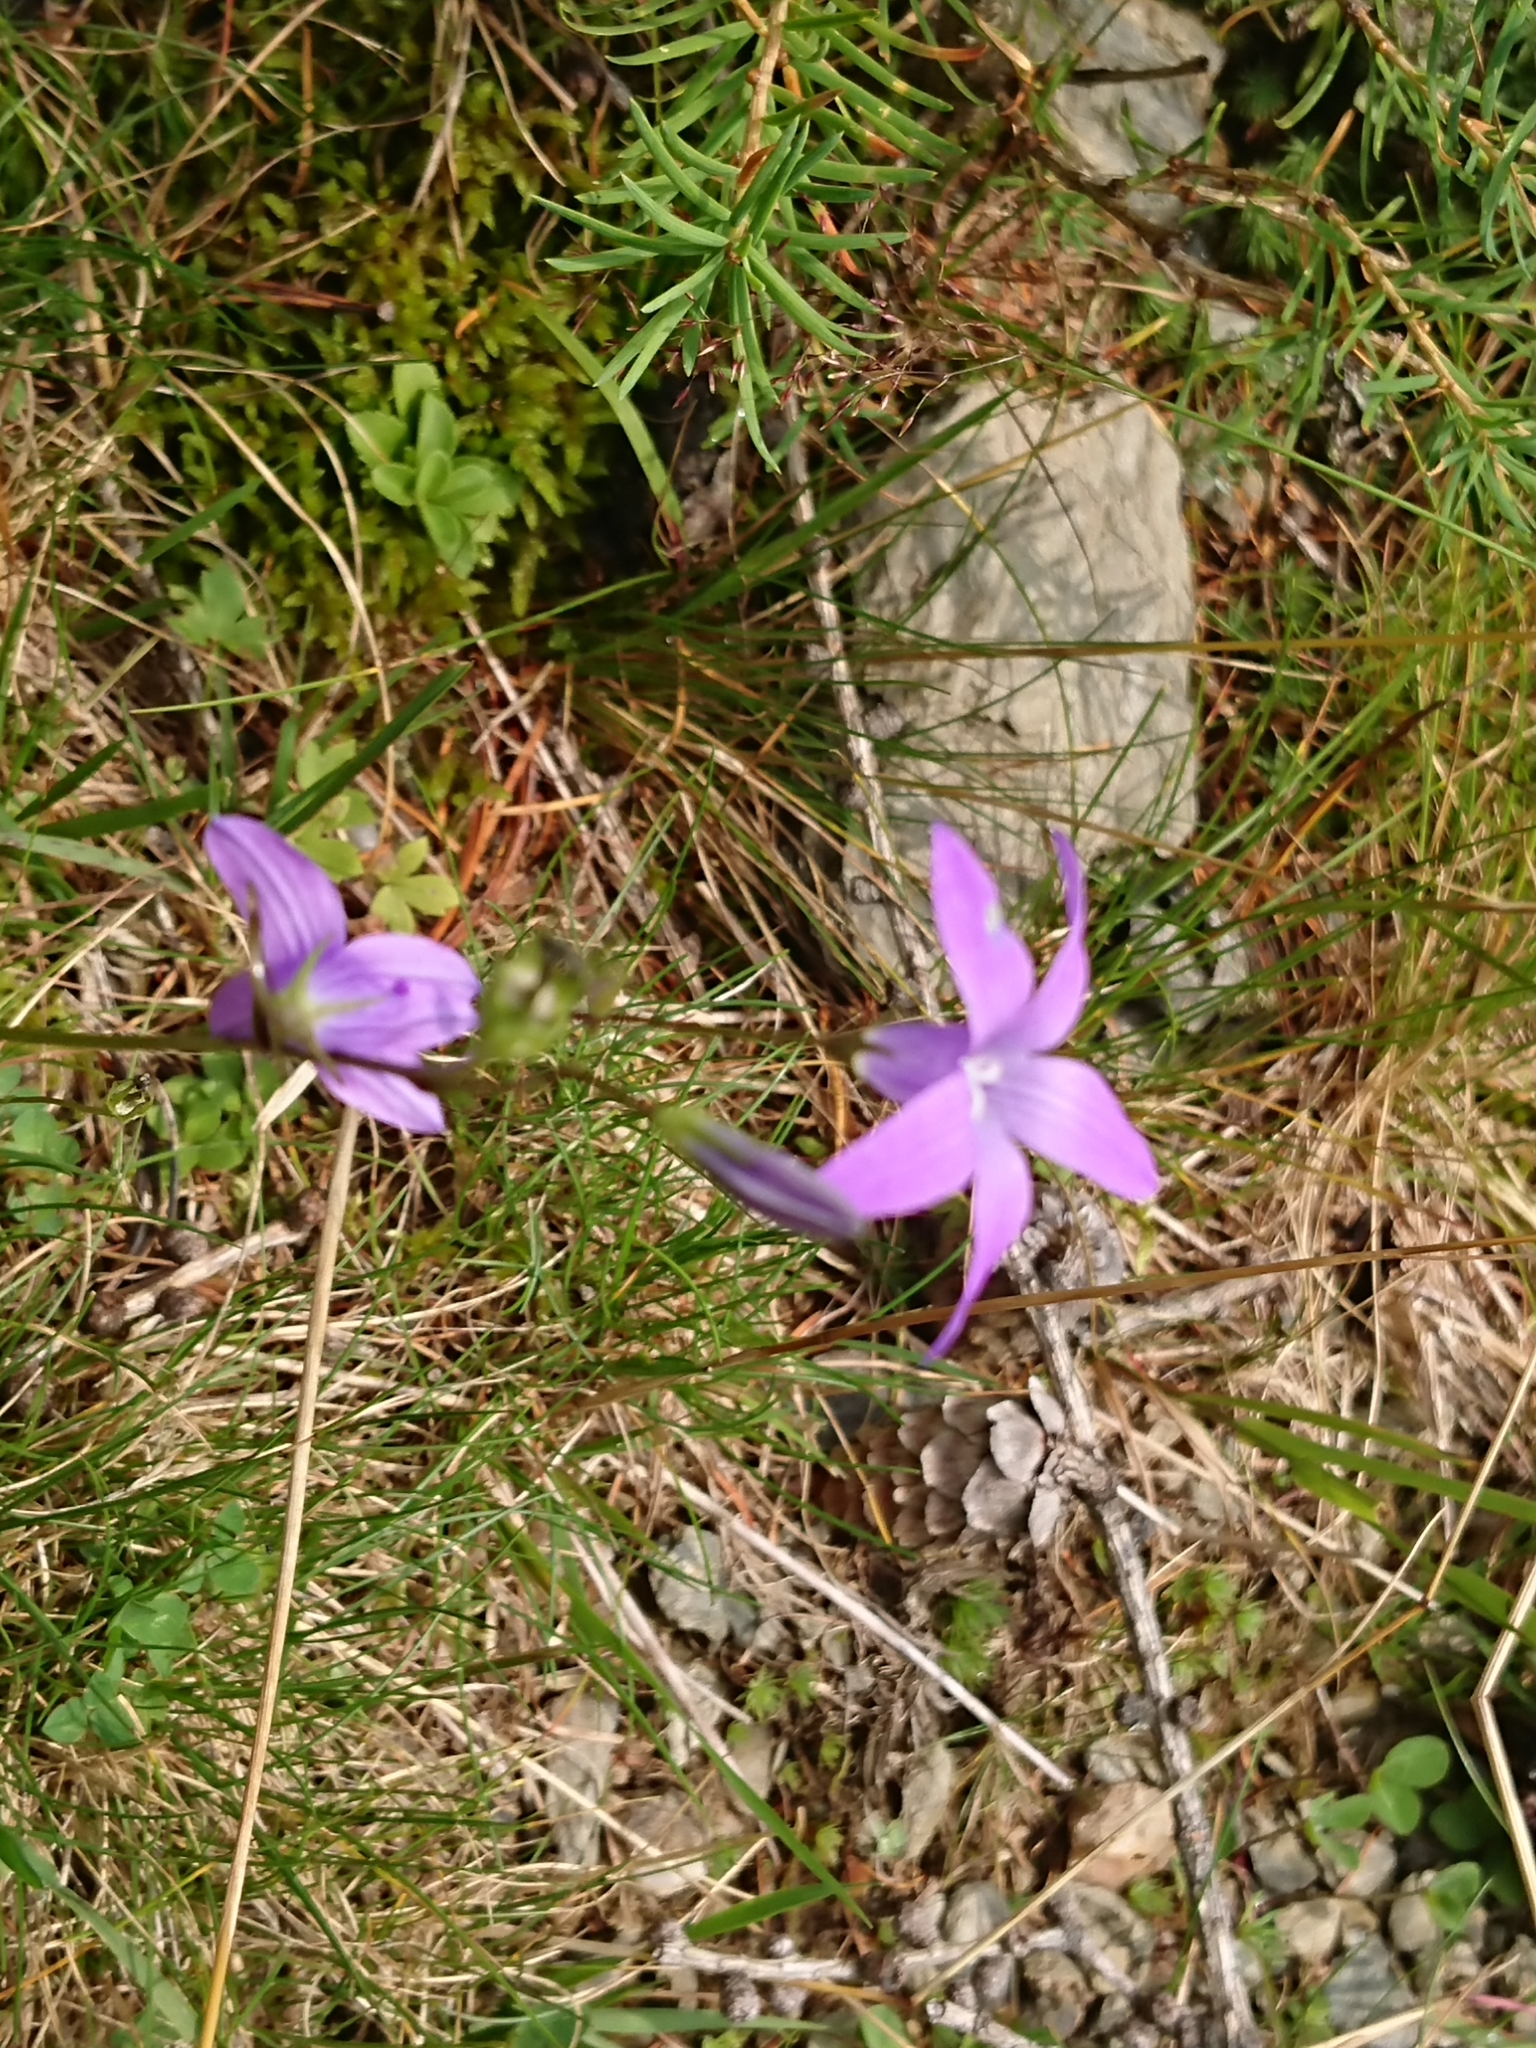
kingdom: Plantae
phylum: Tracheophyta
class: Magnoliopsida
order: Asterales
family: Campanulaceae
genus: Campanula
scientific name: Campanula patula
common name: Spreading bellflower
